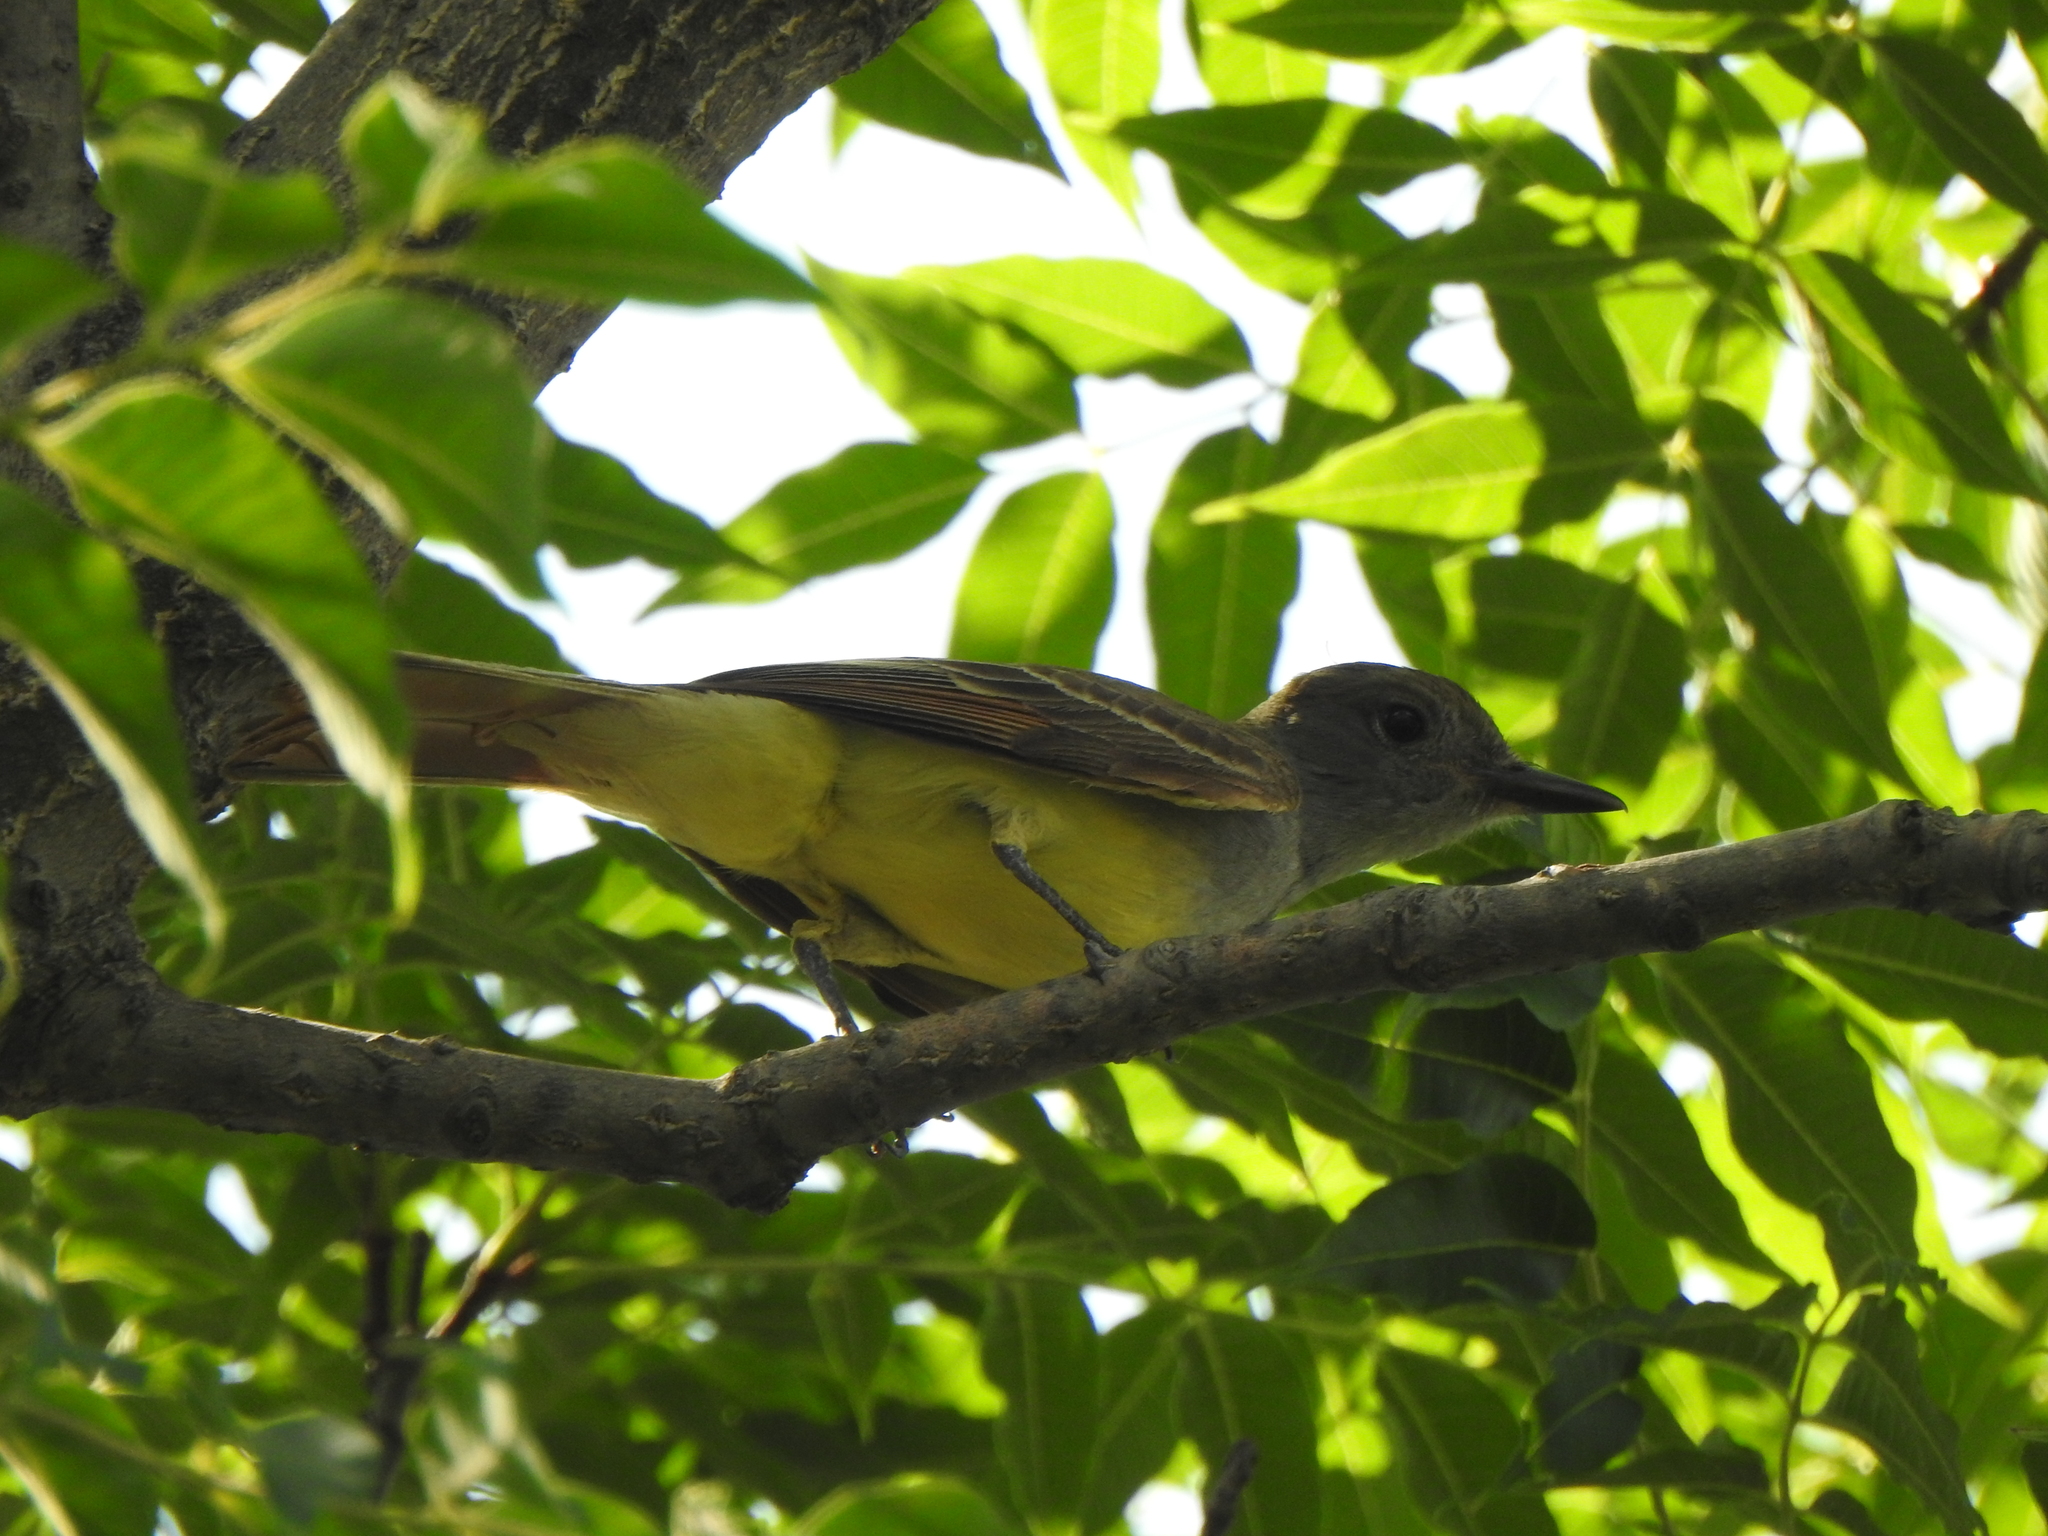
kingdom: Animalia
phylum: Chordata
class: Aves
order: Passeriformes
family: Tyrannidae
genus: Myiarchus
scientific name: Myiarchus crinitus
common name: Great crested flycatcher
